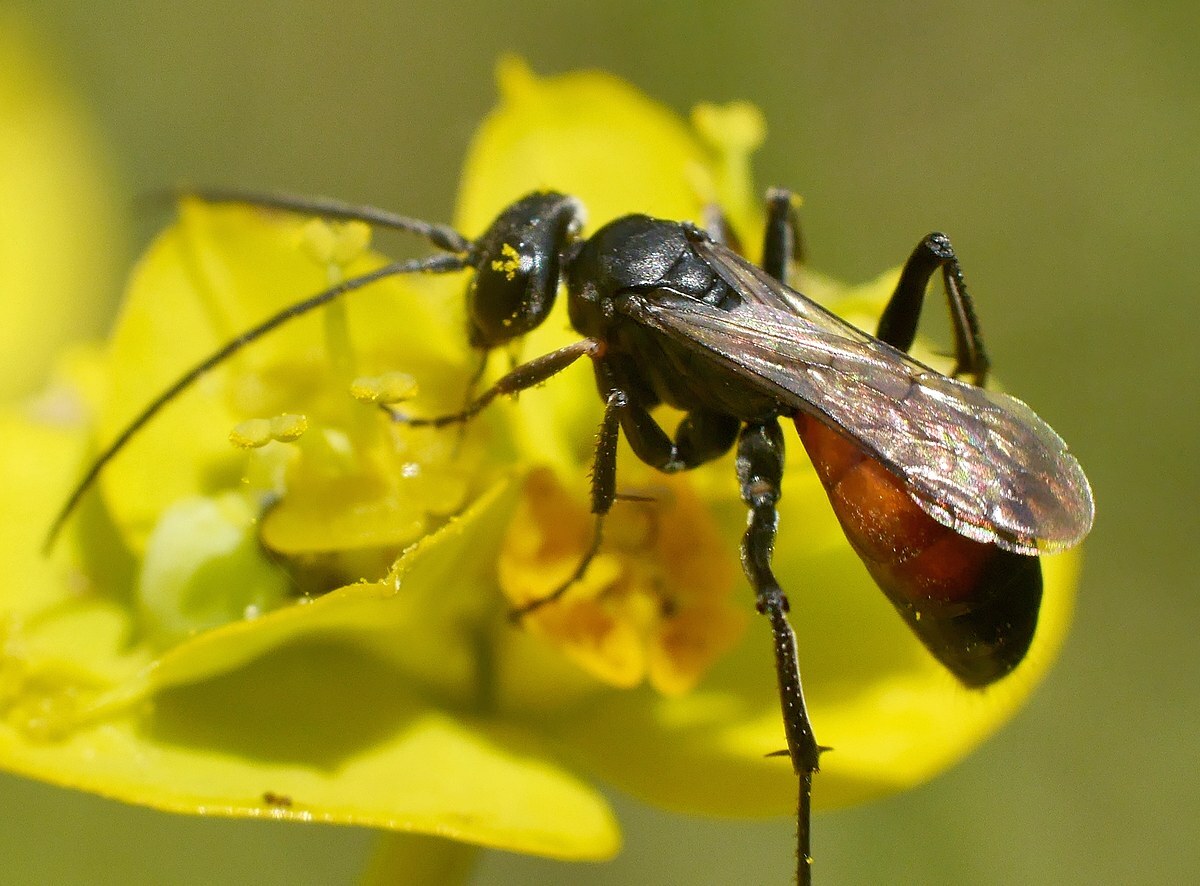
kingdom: Animalia
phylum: Arthropoda
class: Insecta
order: Hymenoptera
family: Pompilidae
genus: Cryptocheilus
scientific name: Cryptocheilus fischeri
